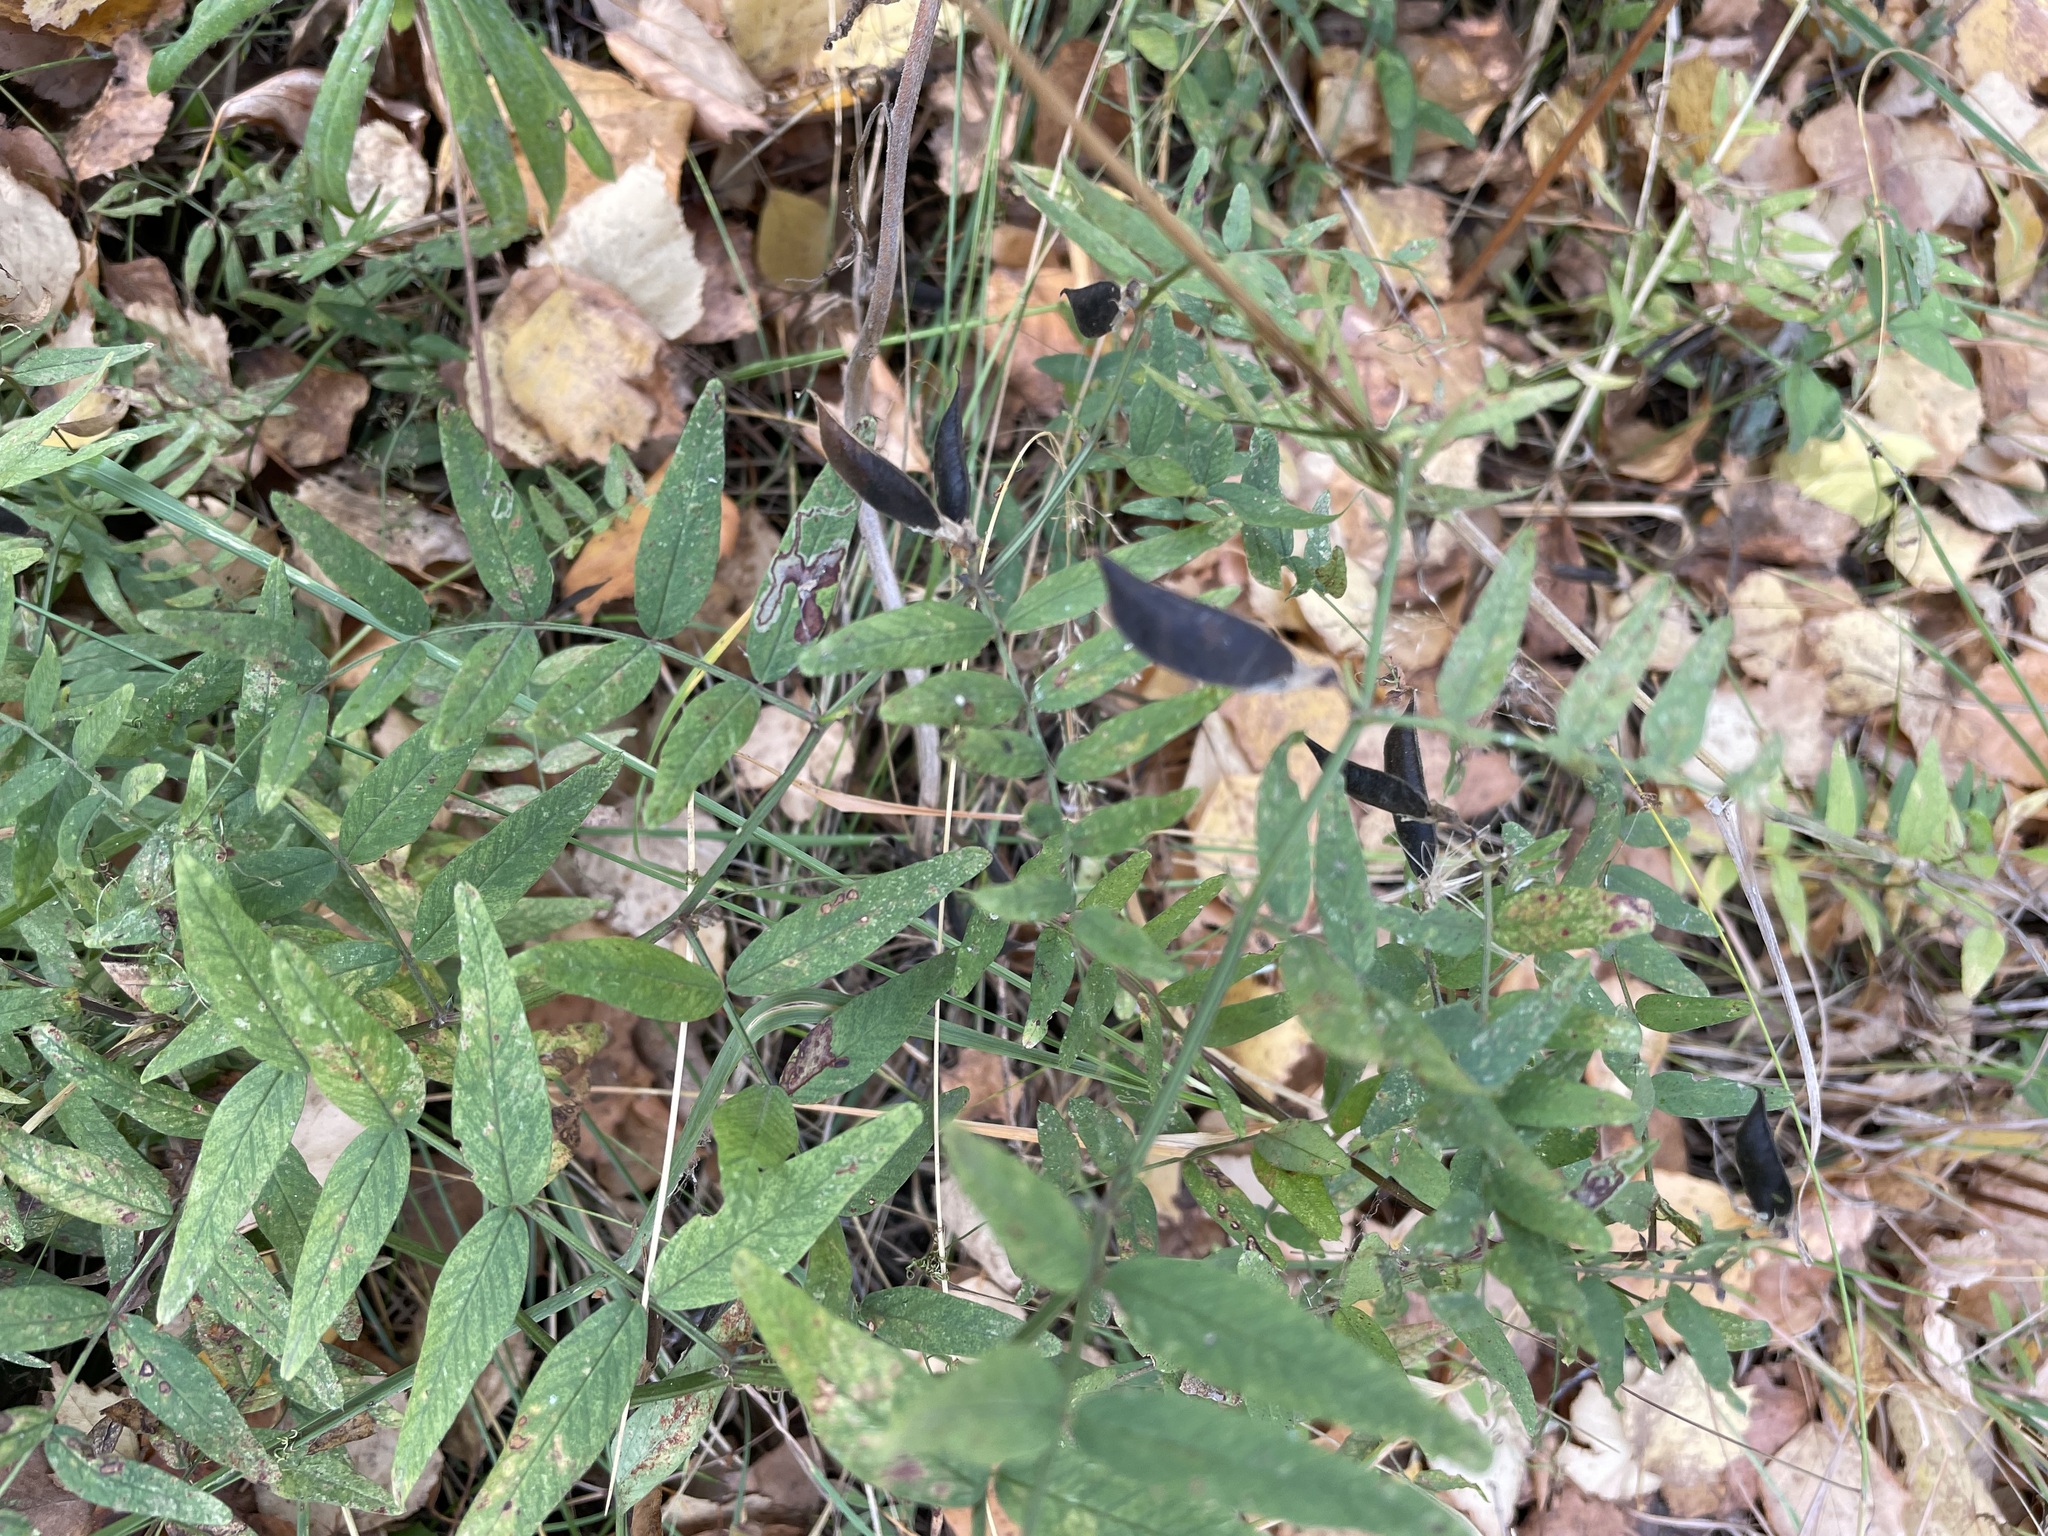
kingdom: Plantae
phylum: Tracheophyta
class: Magnoliopsida
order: Fabales
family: Fabaceae
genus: Vicia
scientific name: Vicia sepium
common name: Bush vetch
